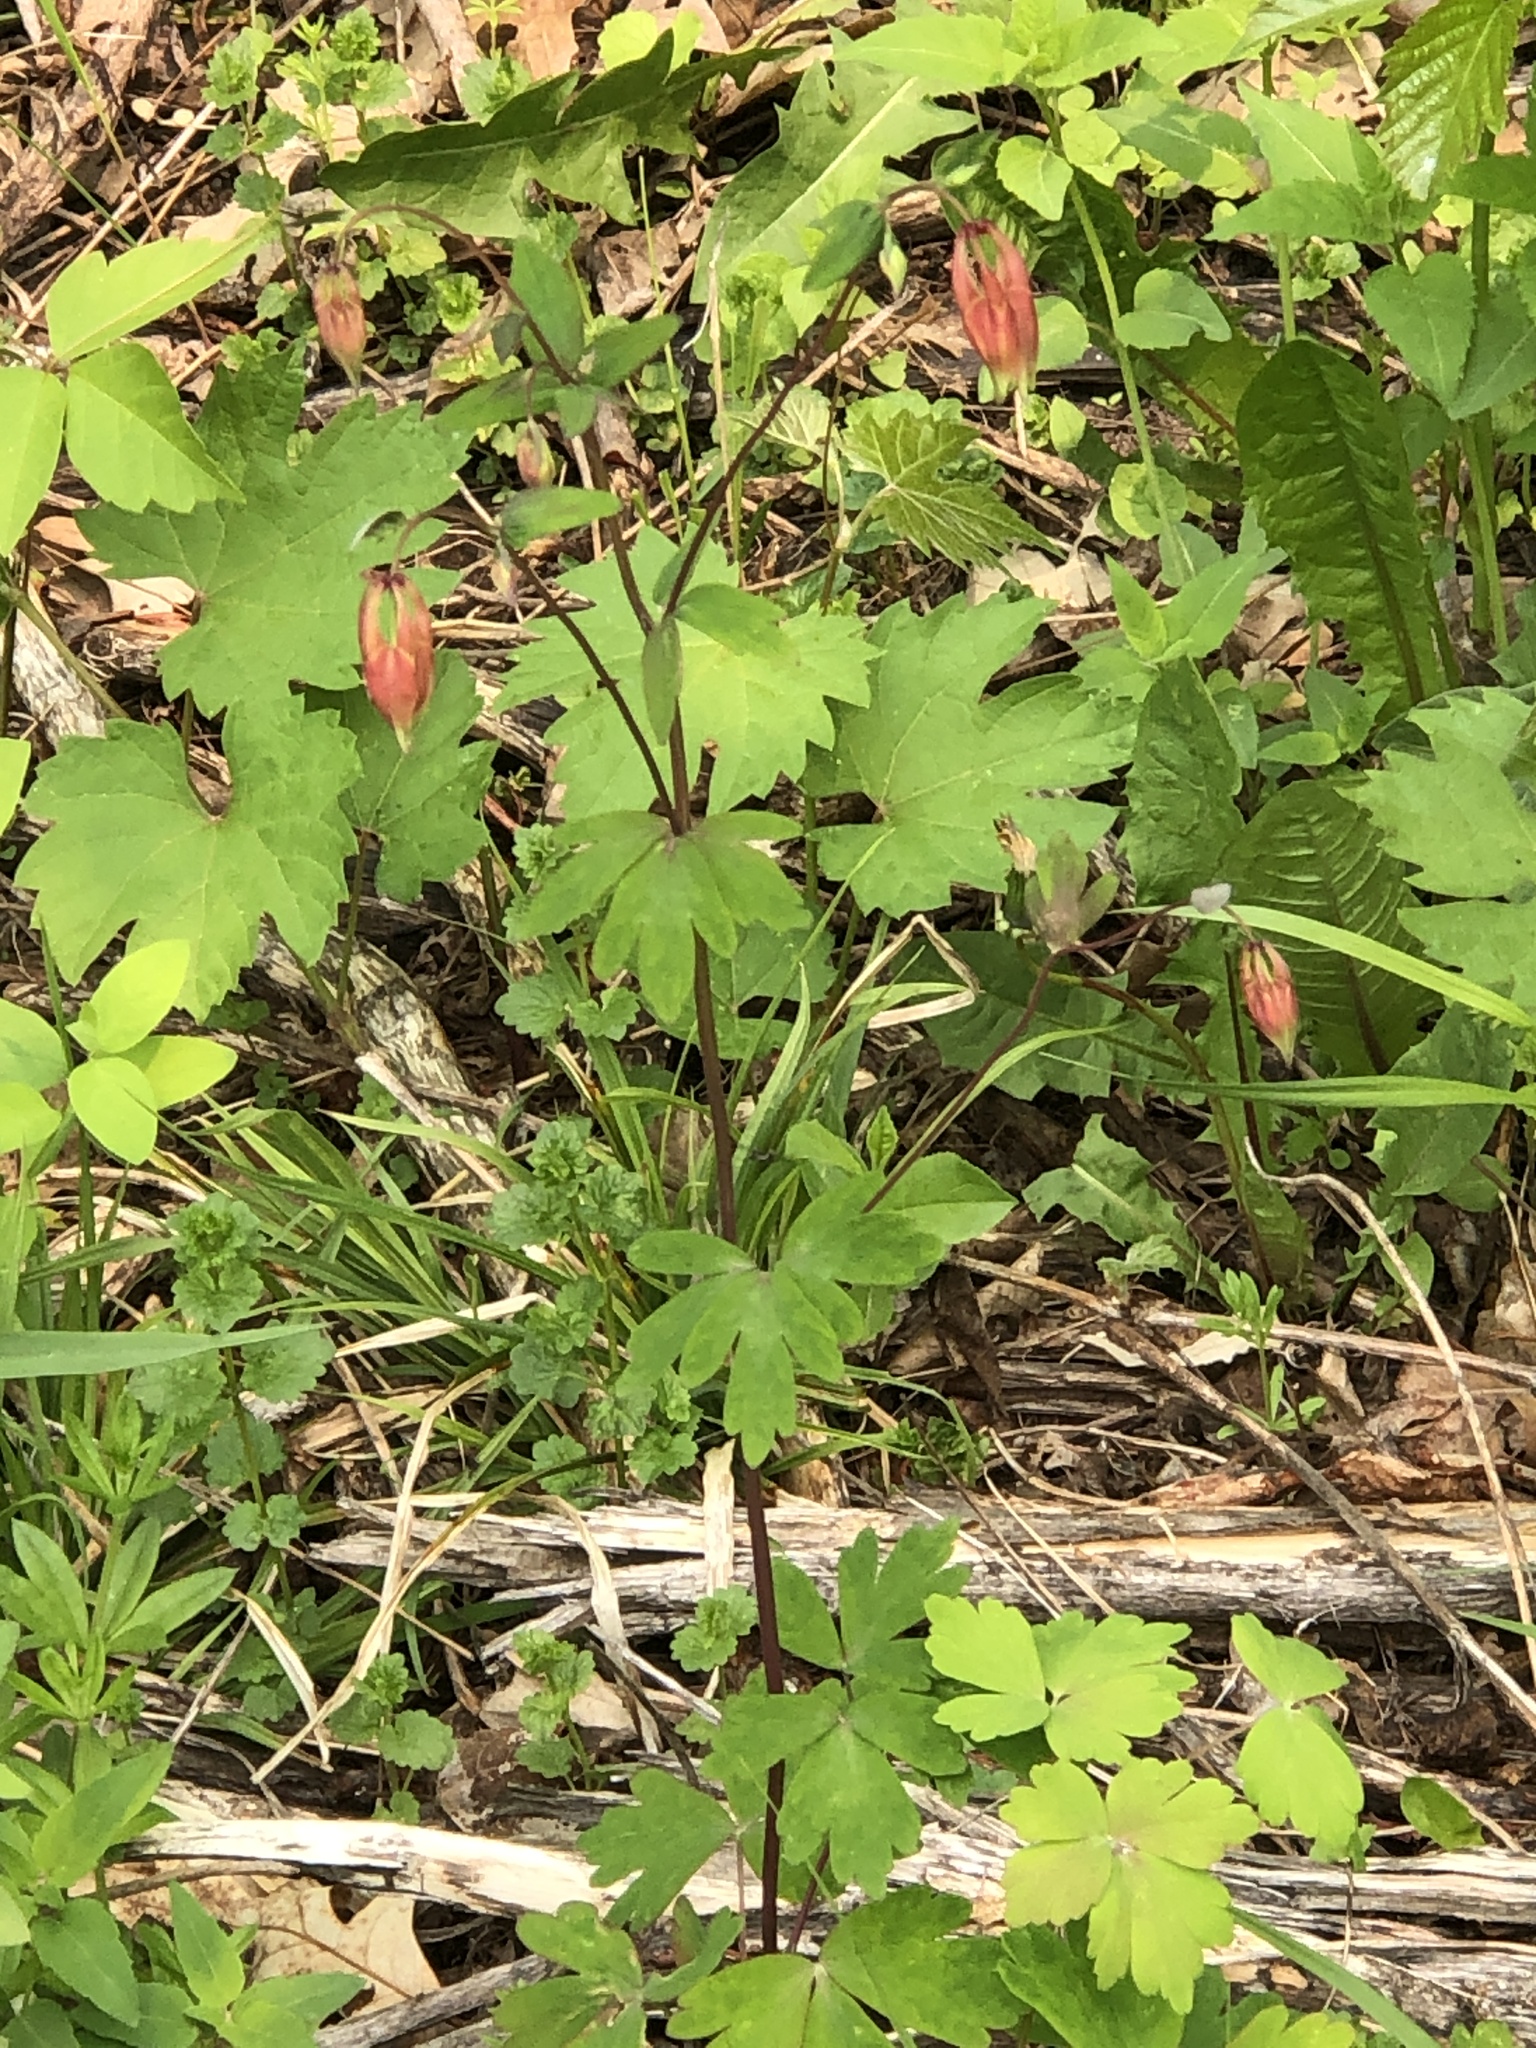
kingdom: Plantae
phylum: Tracheophyta
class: Magnoliopsida
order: Ranunculales
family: Ranunculaceae
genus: Aquilegia
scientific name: Aquilegia canadensis
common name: American columbine
